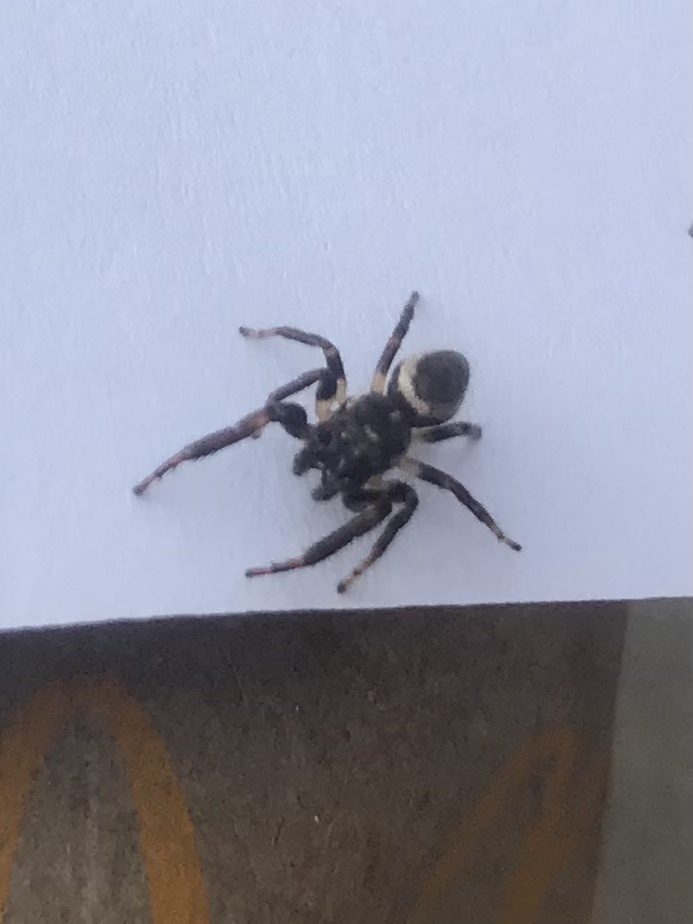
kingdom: Animalia
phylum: Arthropoda
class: Arachnida
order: Araneae
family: Salticidae
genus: Eris
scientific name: Eris militaris
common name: Bronze jumper
